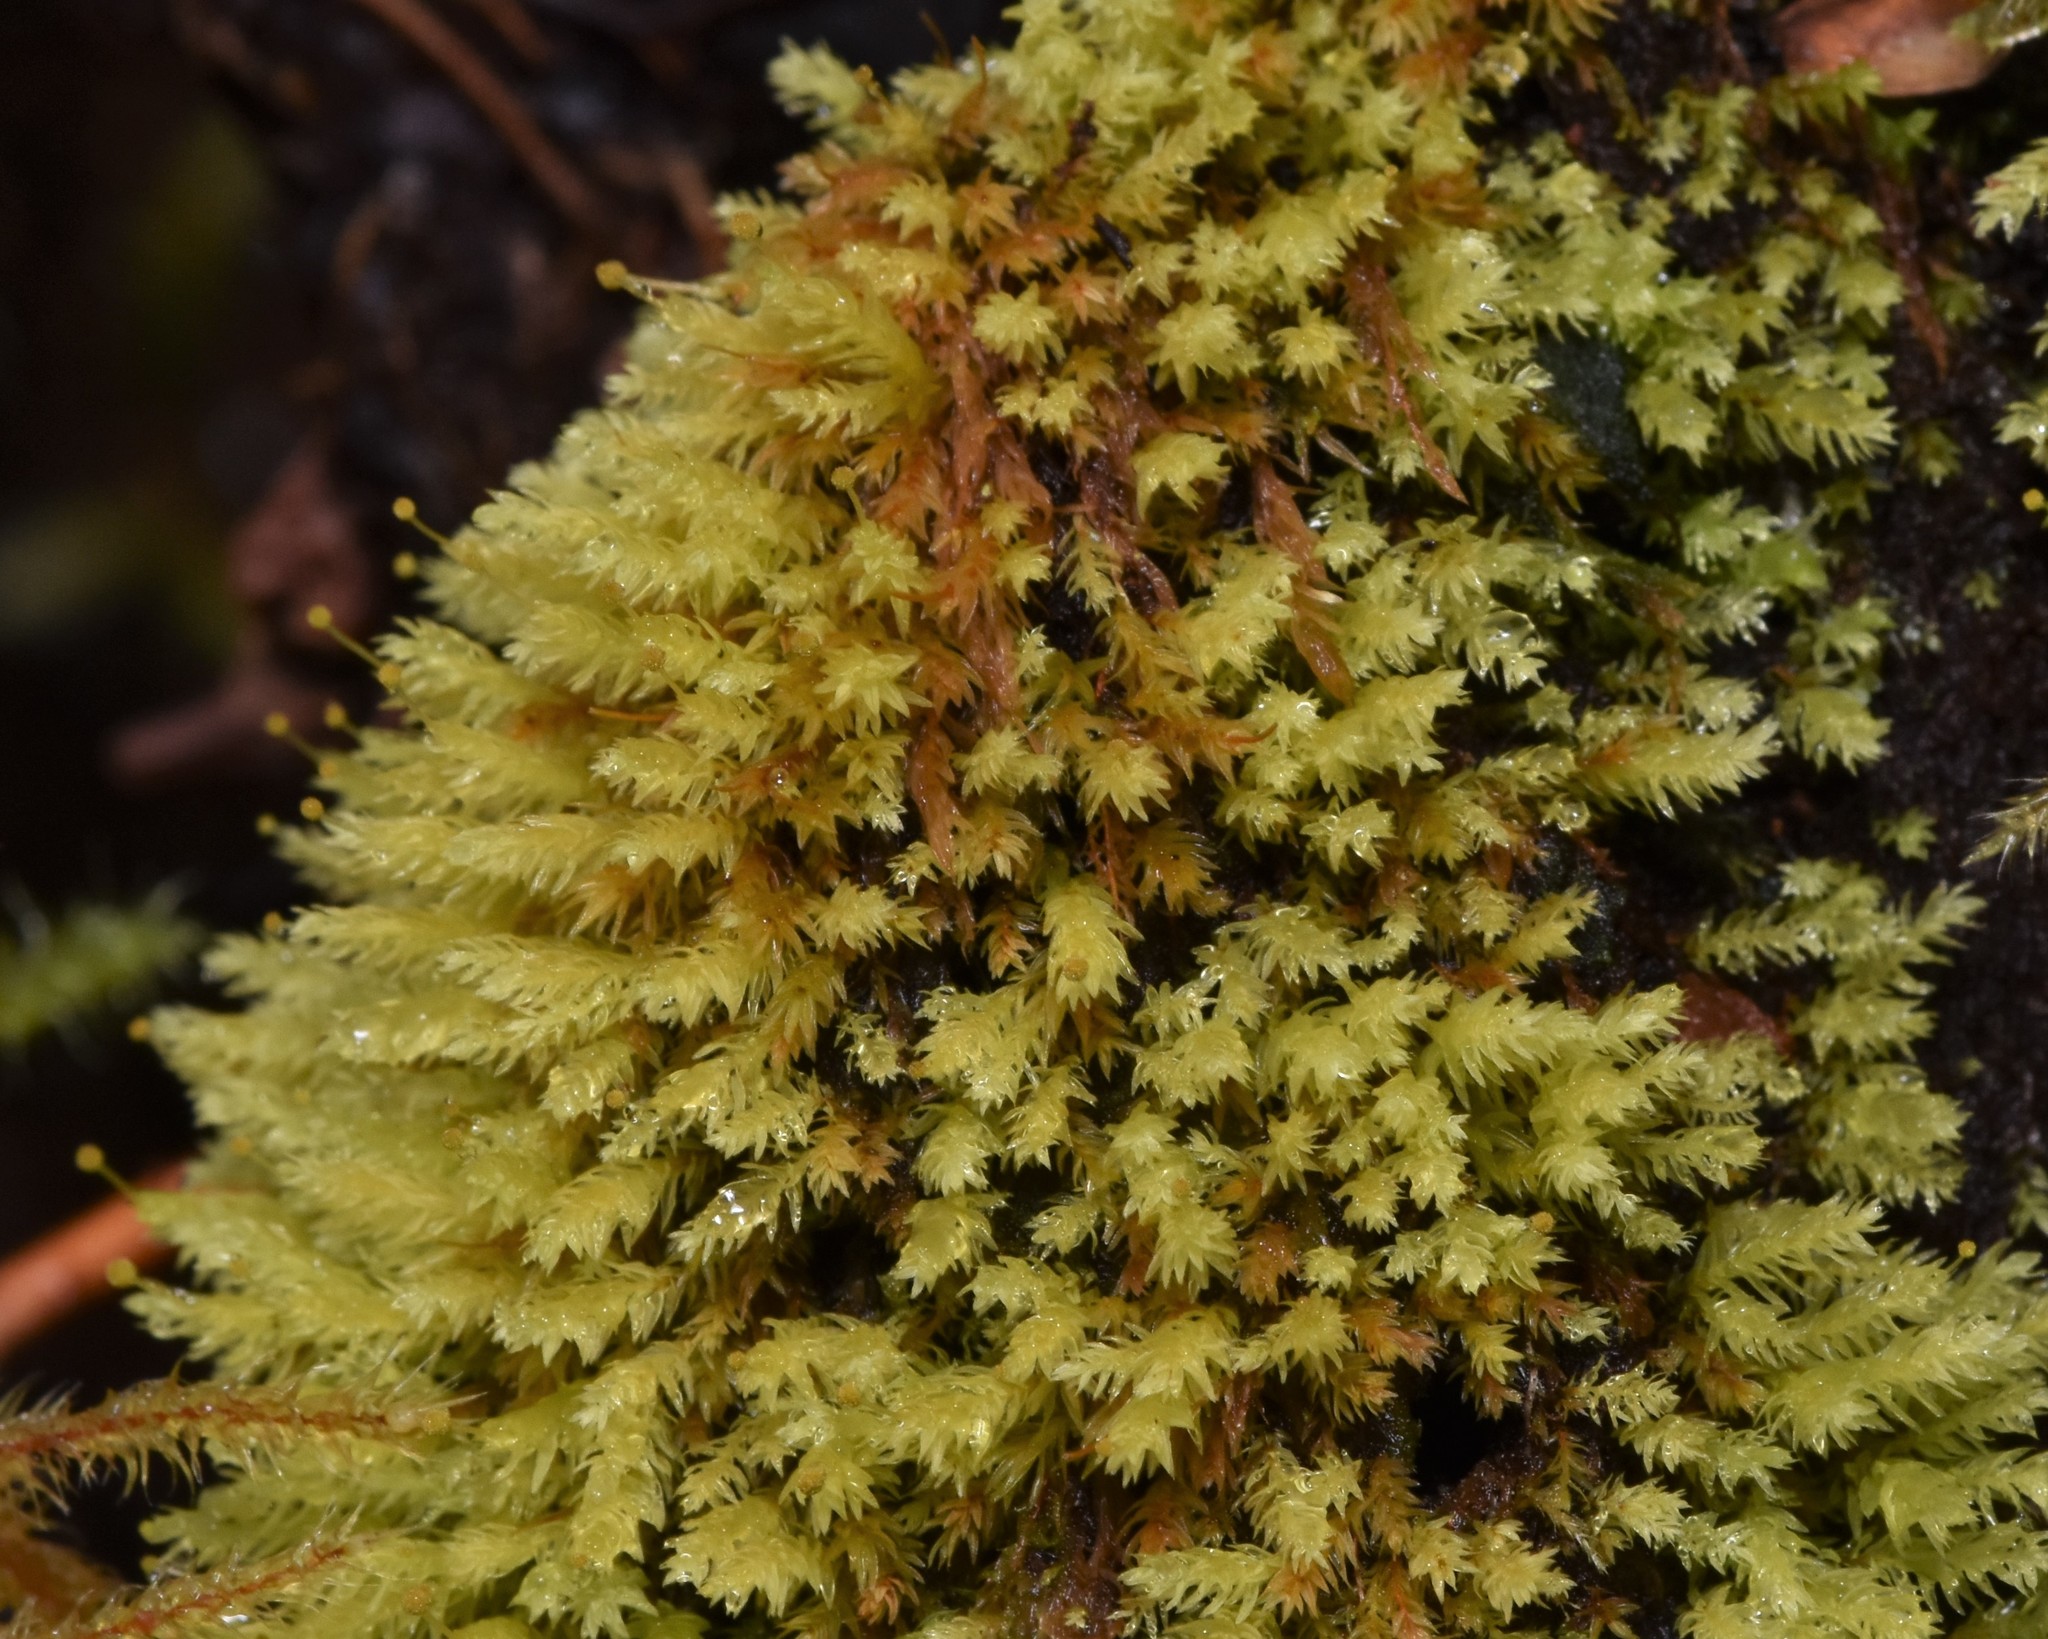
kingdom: Plantae
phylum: Bryophyta
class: Bryopsida
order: Aulacomniales
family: Aulacomniaceae
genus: Aulacomnium
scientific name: Aulacomnium androgynum
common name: Little groove moss
